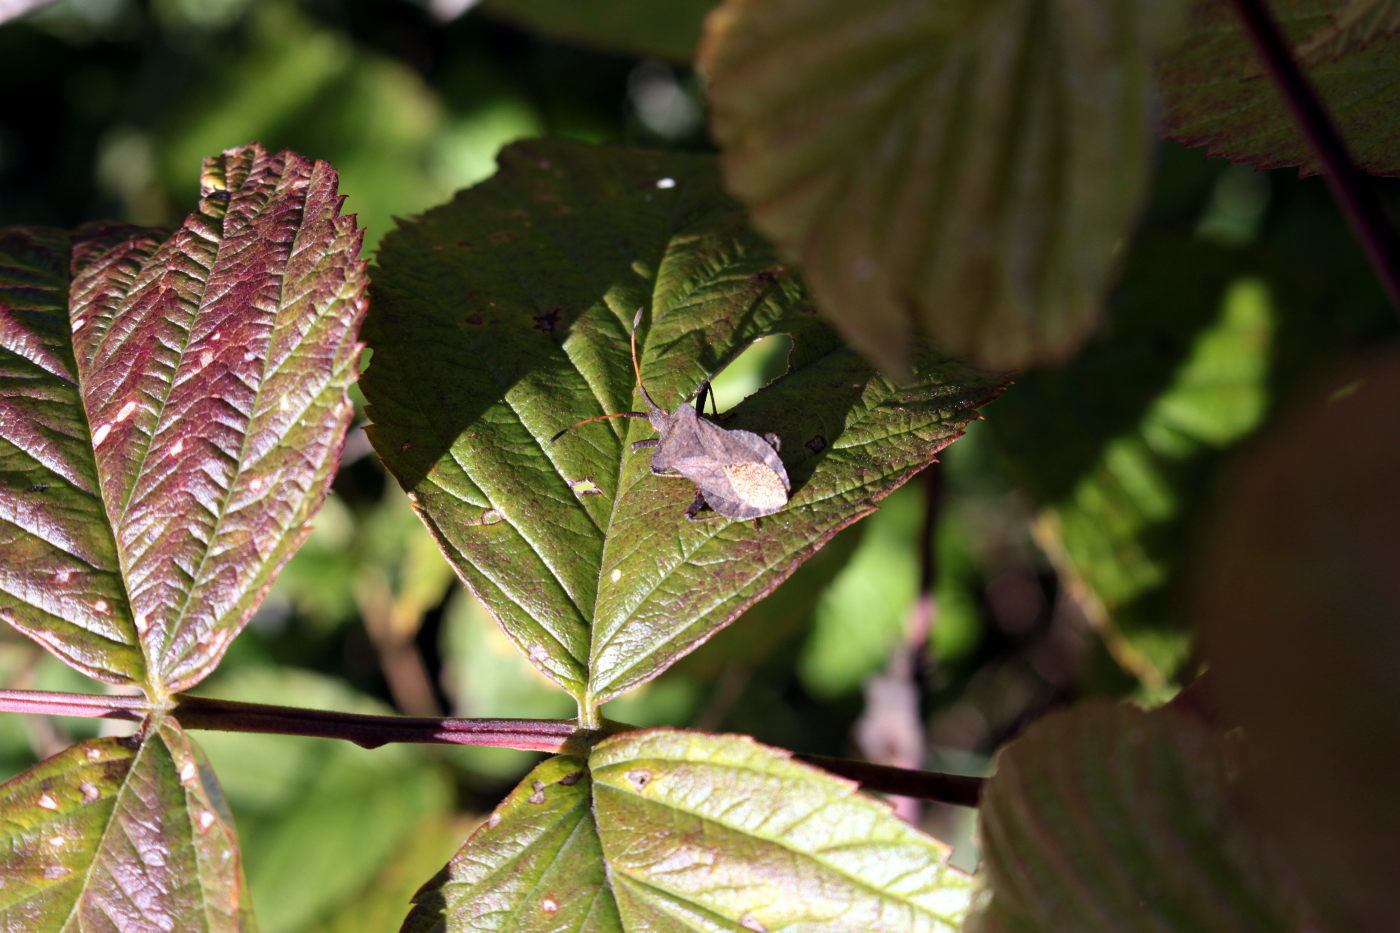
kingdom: Animalia
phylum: Arthropoda
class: Insecta
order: Hemiptera
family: Coreidae
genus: Coreus
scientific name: Coreus marginatus
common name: Dock bug
